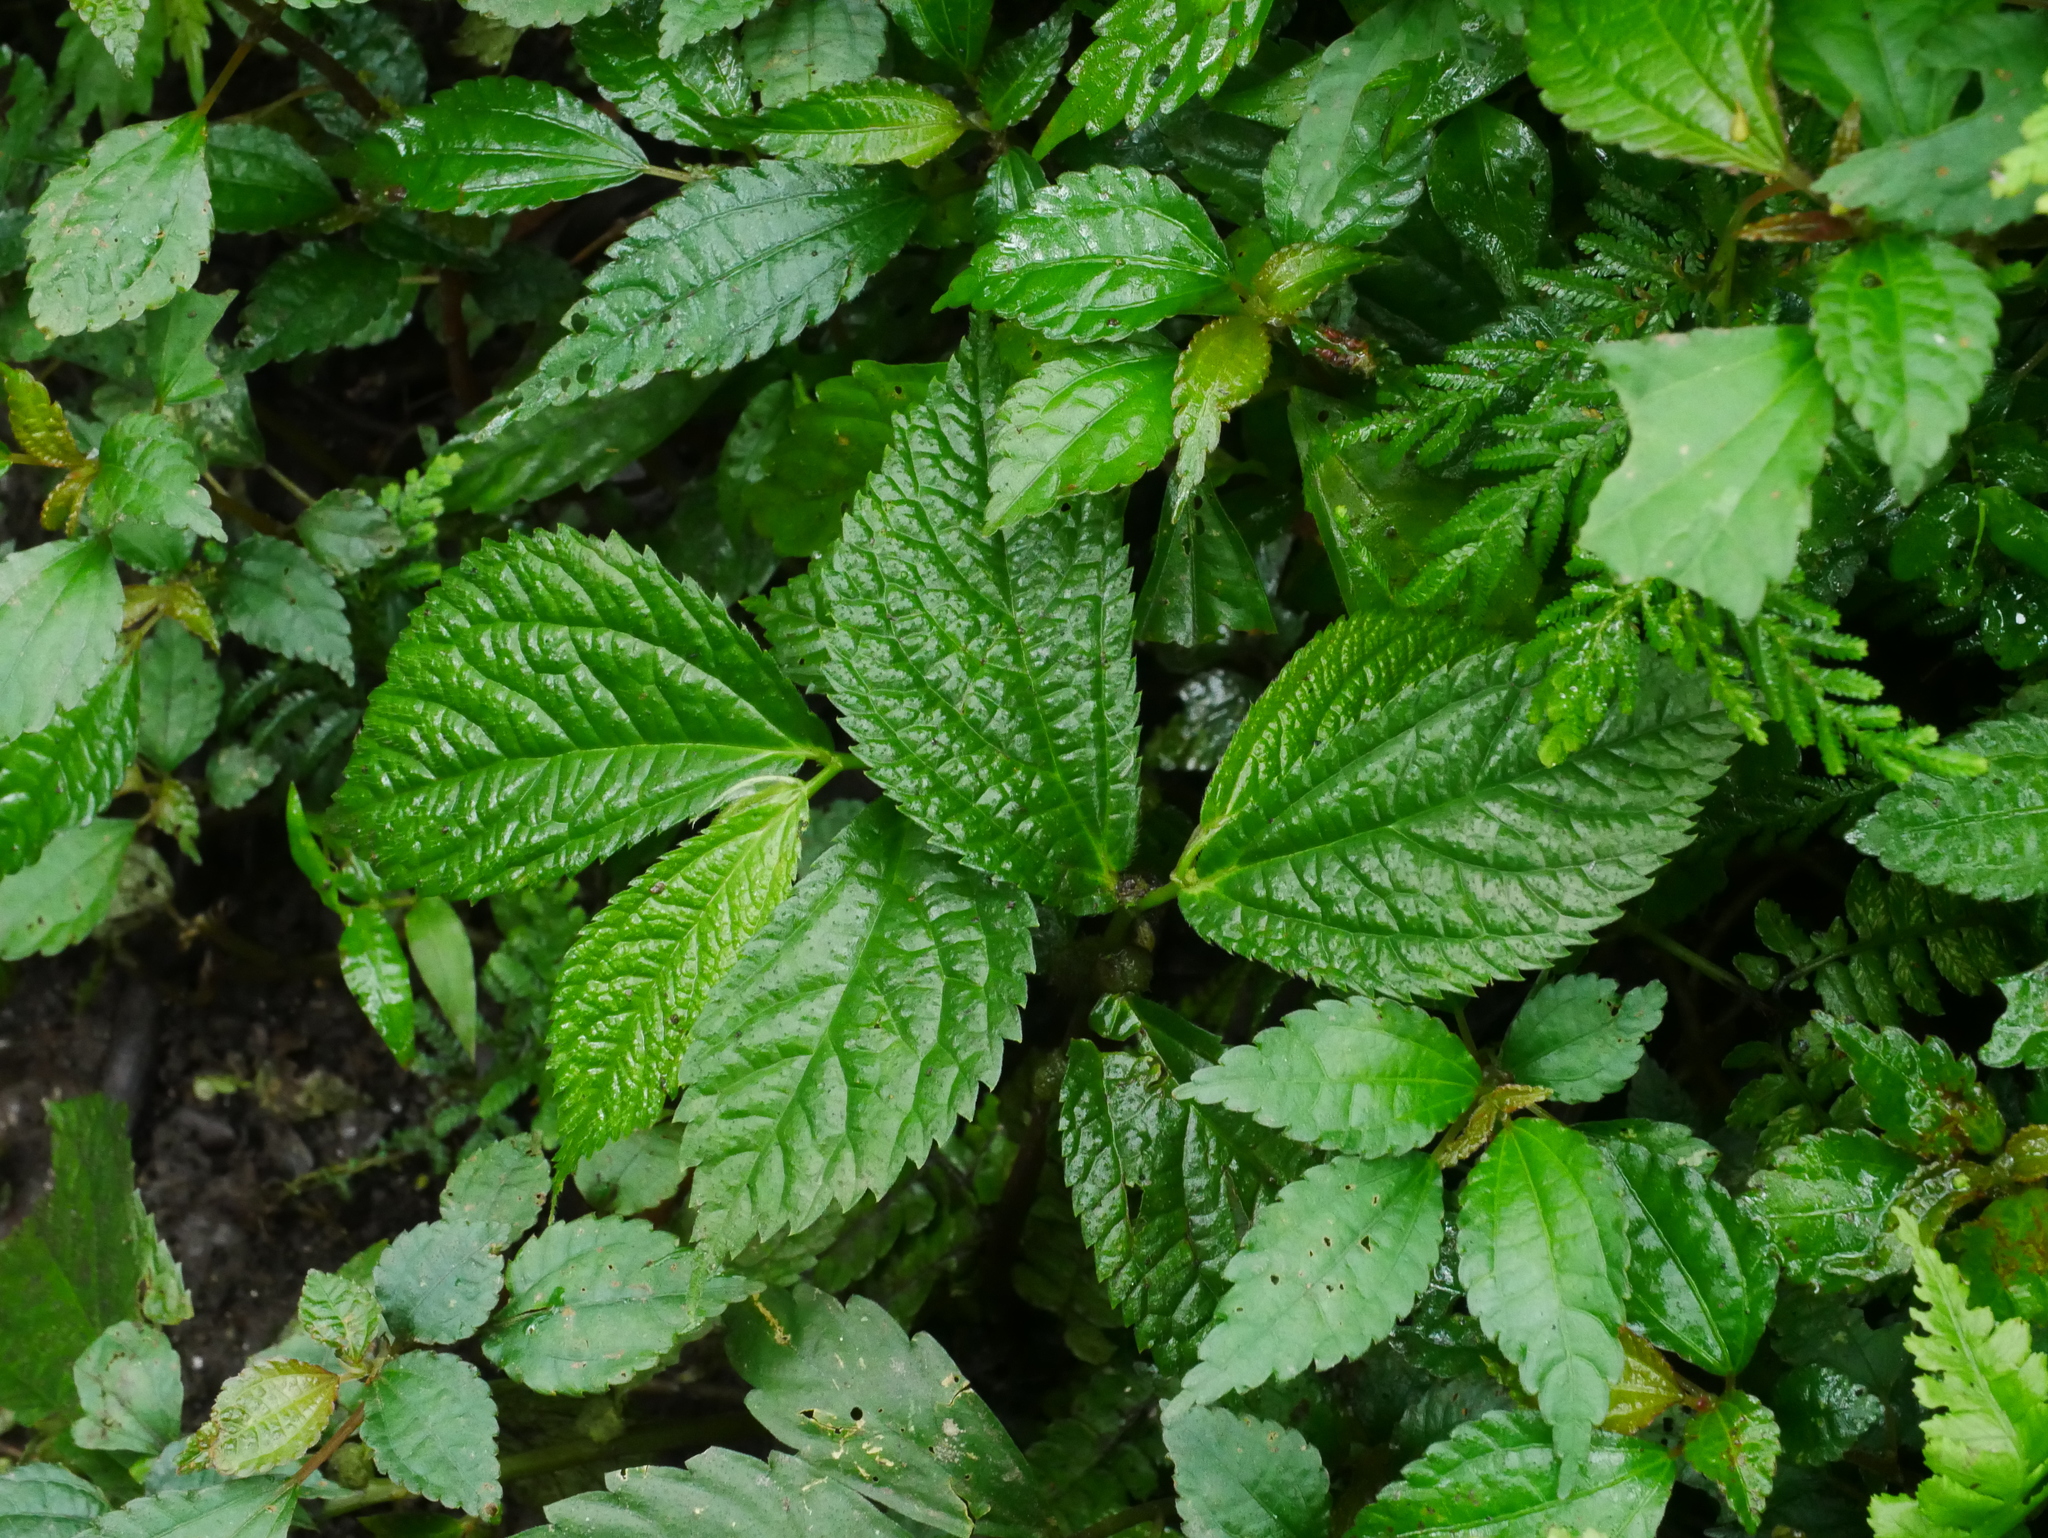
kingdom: Plantae
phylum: Tracheophyta
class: Magnoliopsida
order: Rosales
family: Urticaceae
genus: Elatostema
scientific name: Elatostema rivulare
